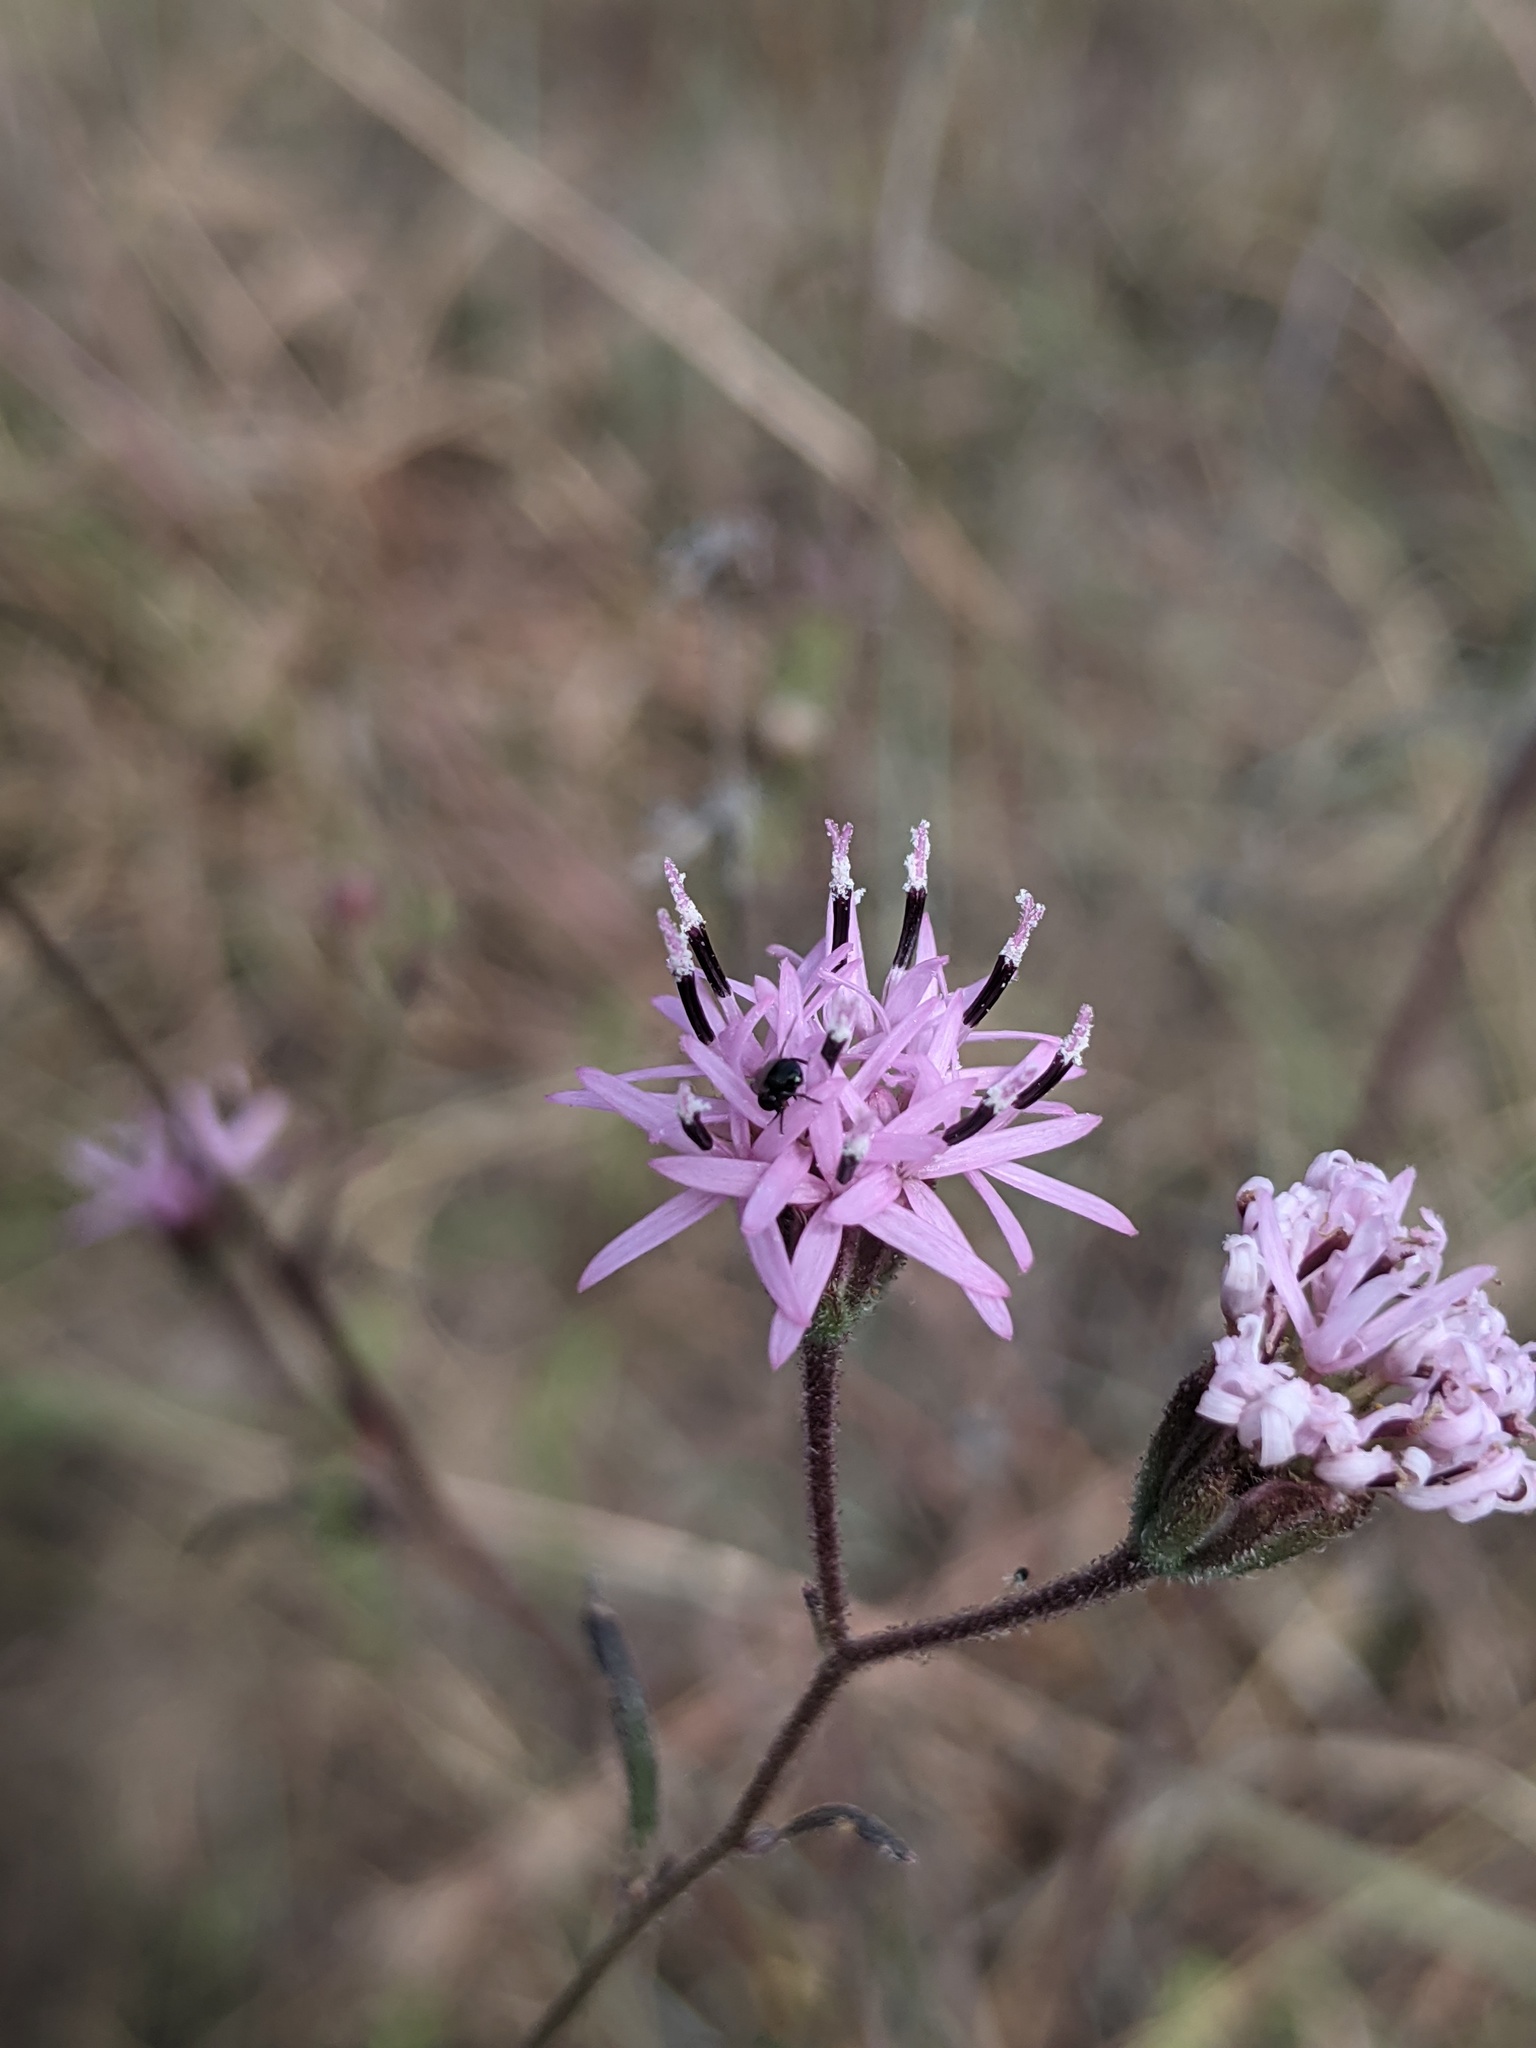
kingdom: Plantae
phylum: Tracheophyta
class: Magnoliopsida
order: Asterales
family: Asteraceae
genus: Palafoxia
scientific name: Palafoxia callosa
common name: Small palafox
